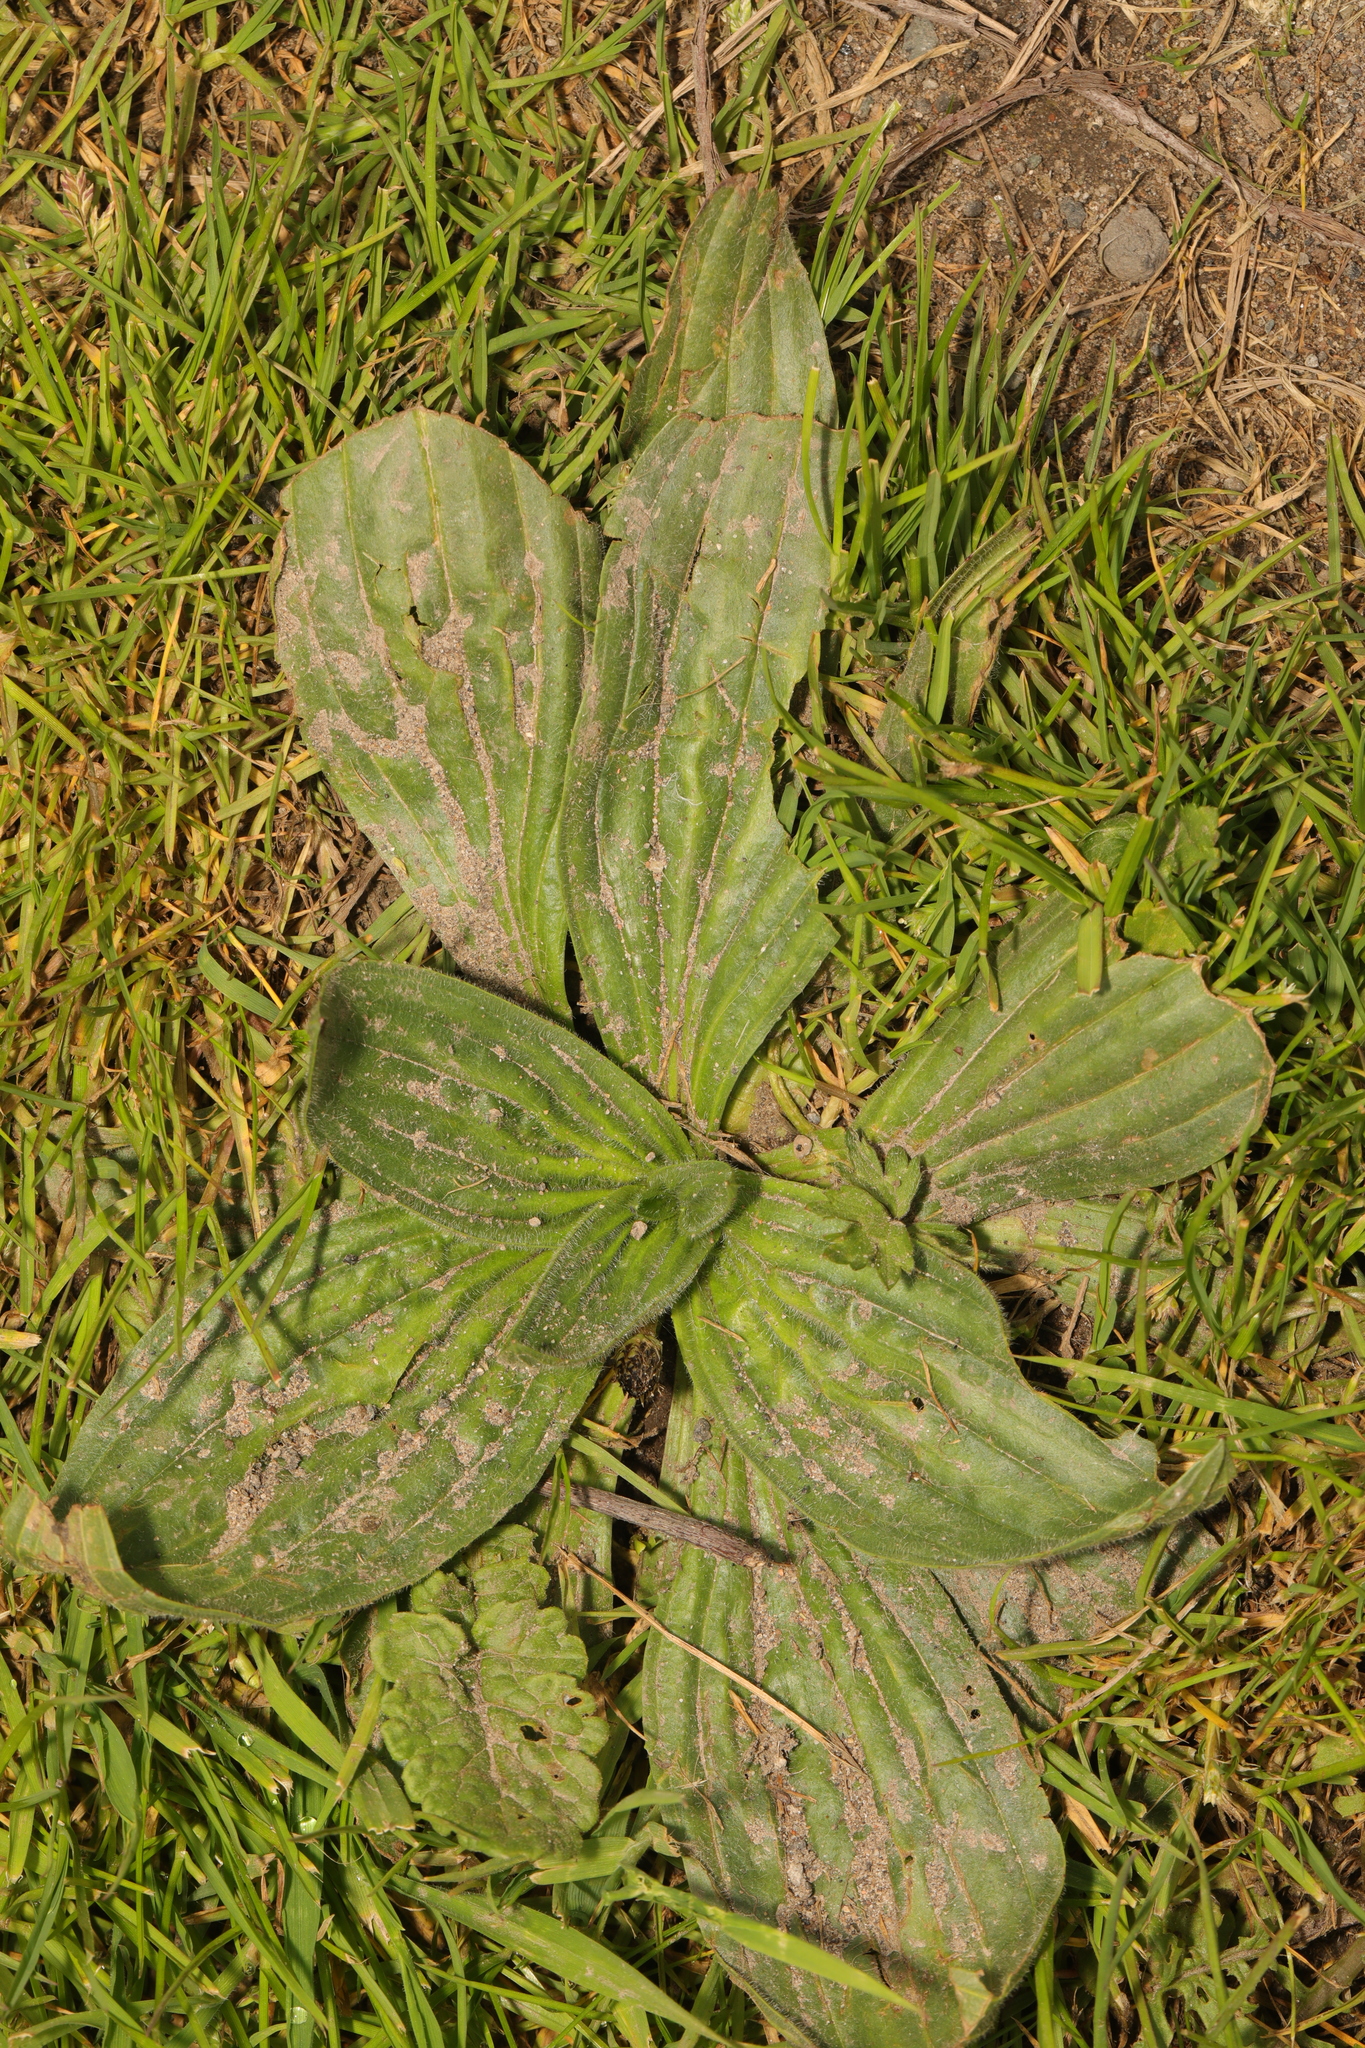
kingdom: Plantae
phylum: Tracheophyta
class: Magnoliopsida
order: Lamiales
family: Plantaginaceae
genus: Plantago
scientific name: Plantago major
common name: Common plantain
